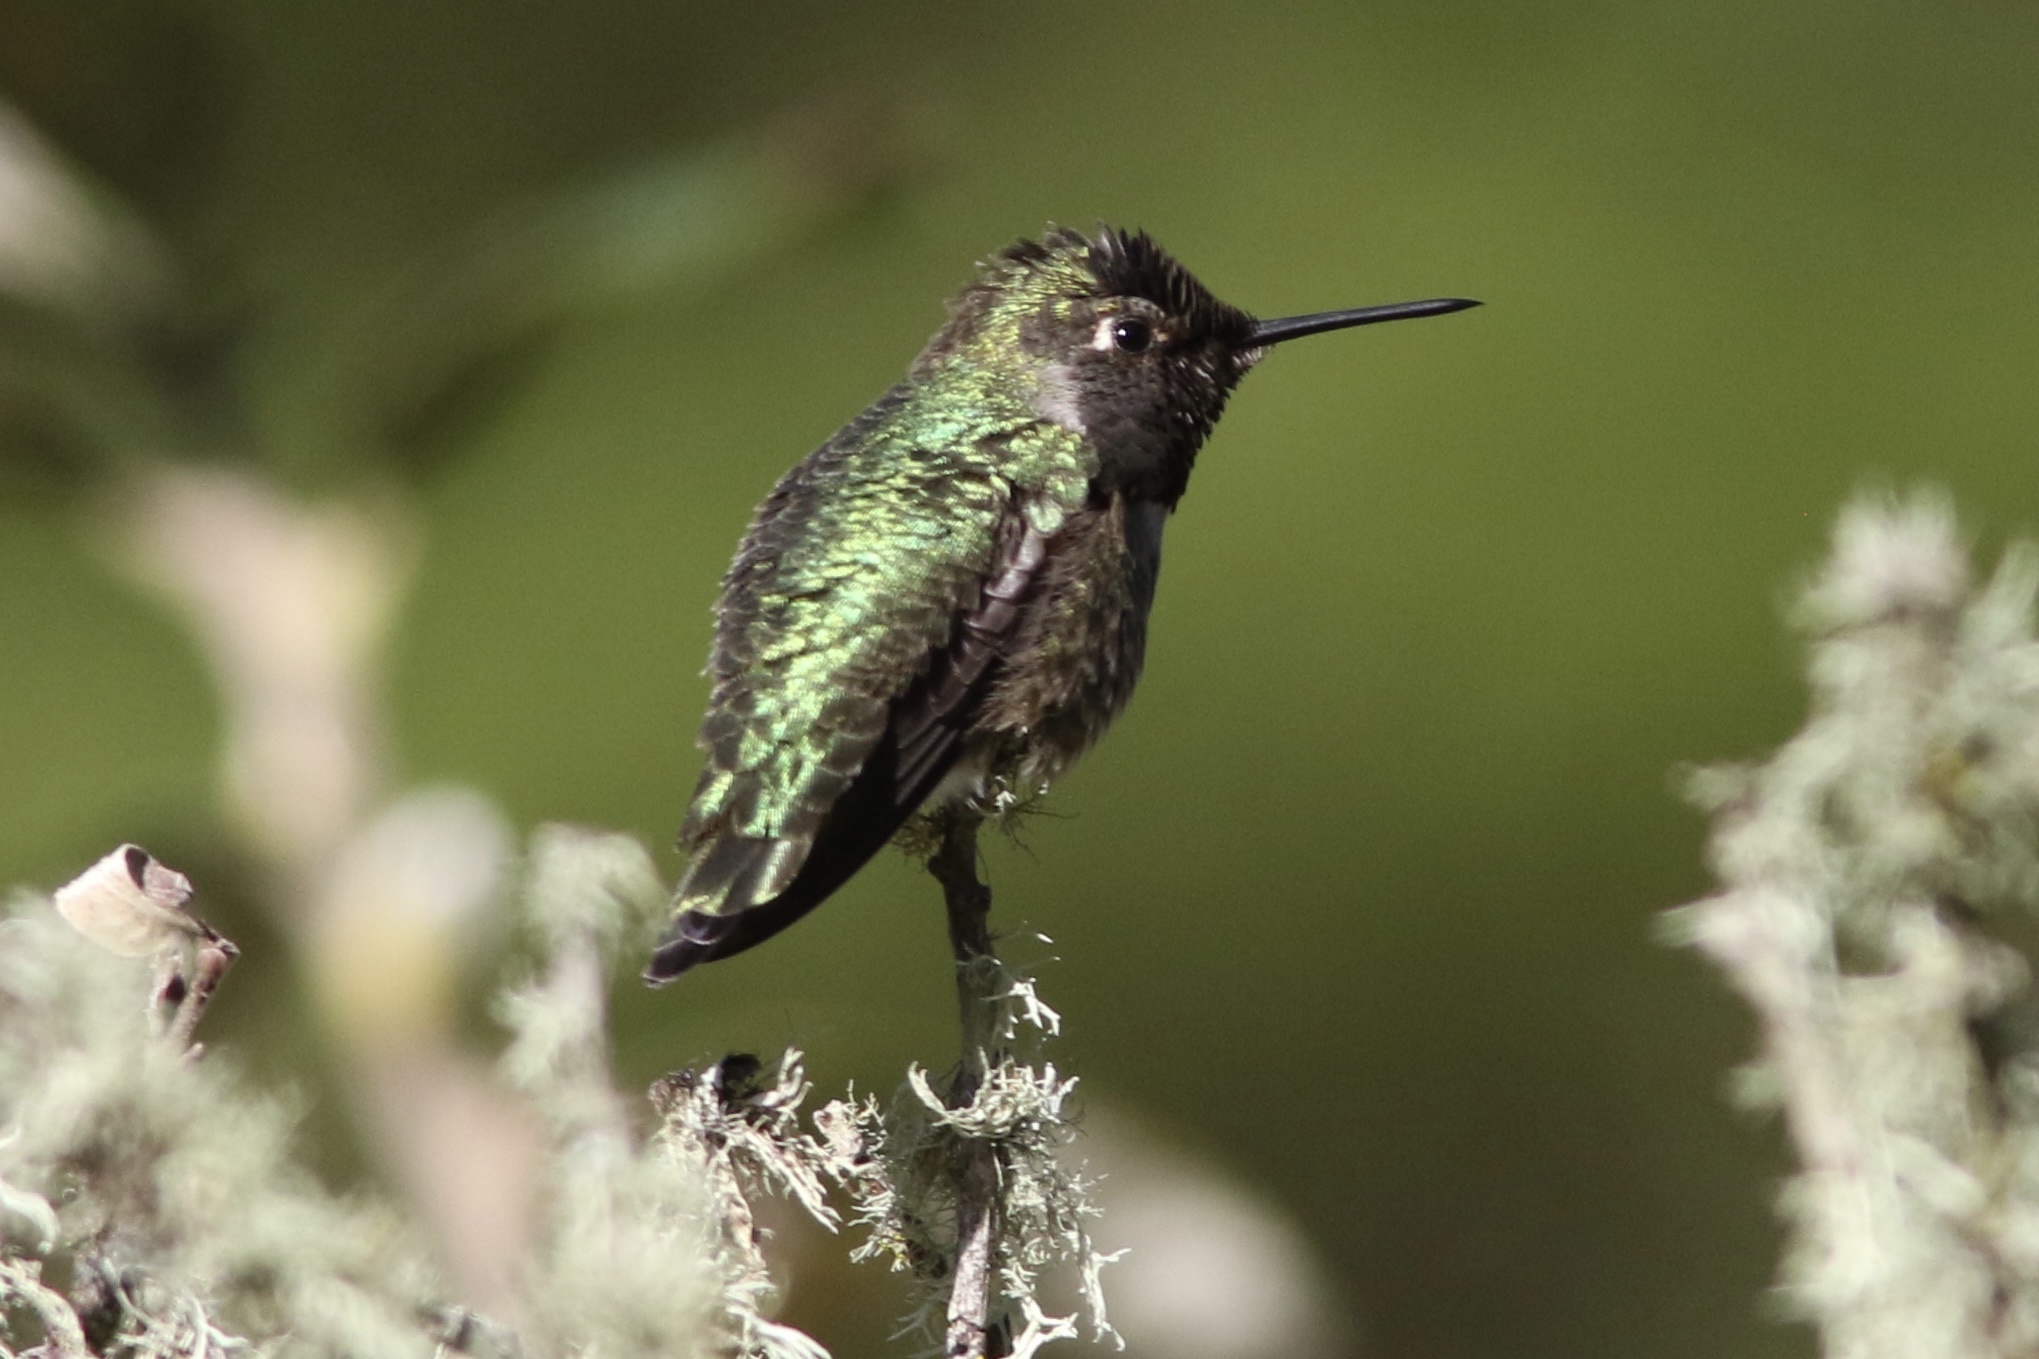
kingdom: Animalia
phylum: Chordata
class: Aves
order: Apodiformes
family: Trochilidae
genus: Calypte
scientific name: Calypte anna
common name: Anna's hummingbird
